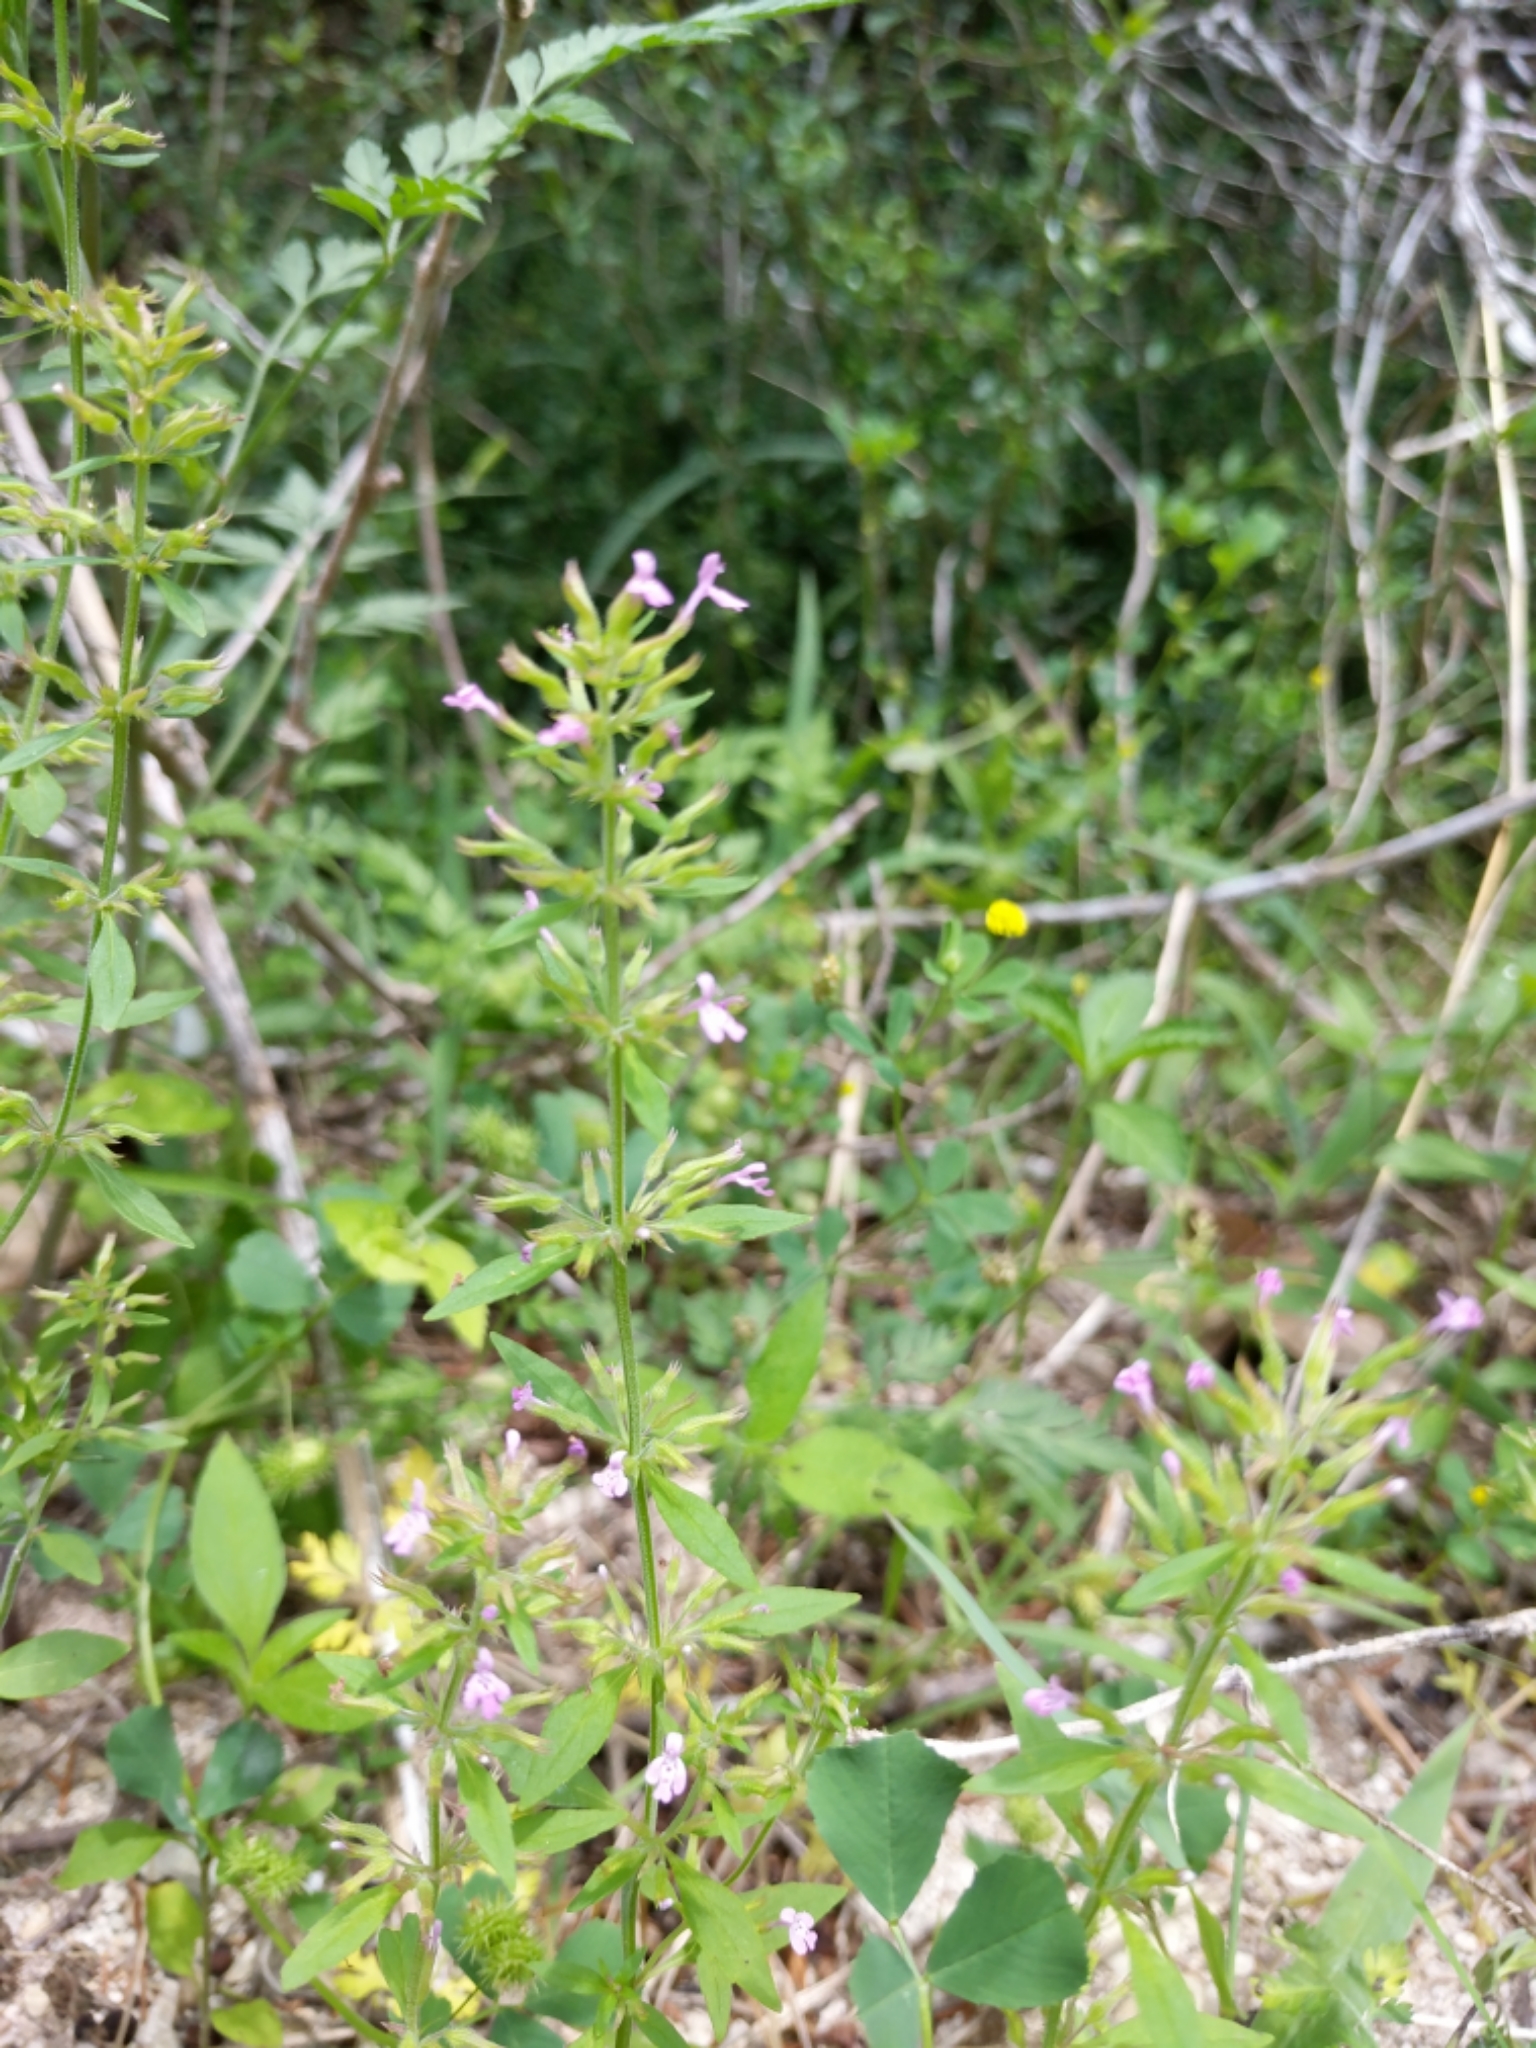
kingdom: Plantae
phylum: Tracheophyta
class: Magnoliopsida
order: Lamiales
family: Lamiaceae
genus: Hedeoma
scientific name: Hedeoma acinoides
